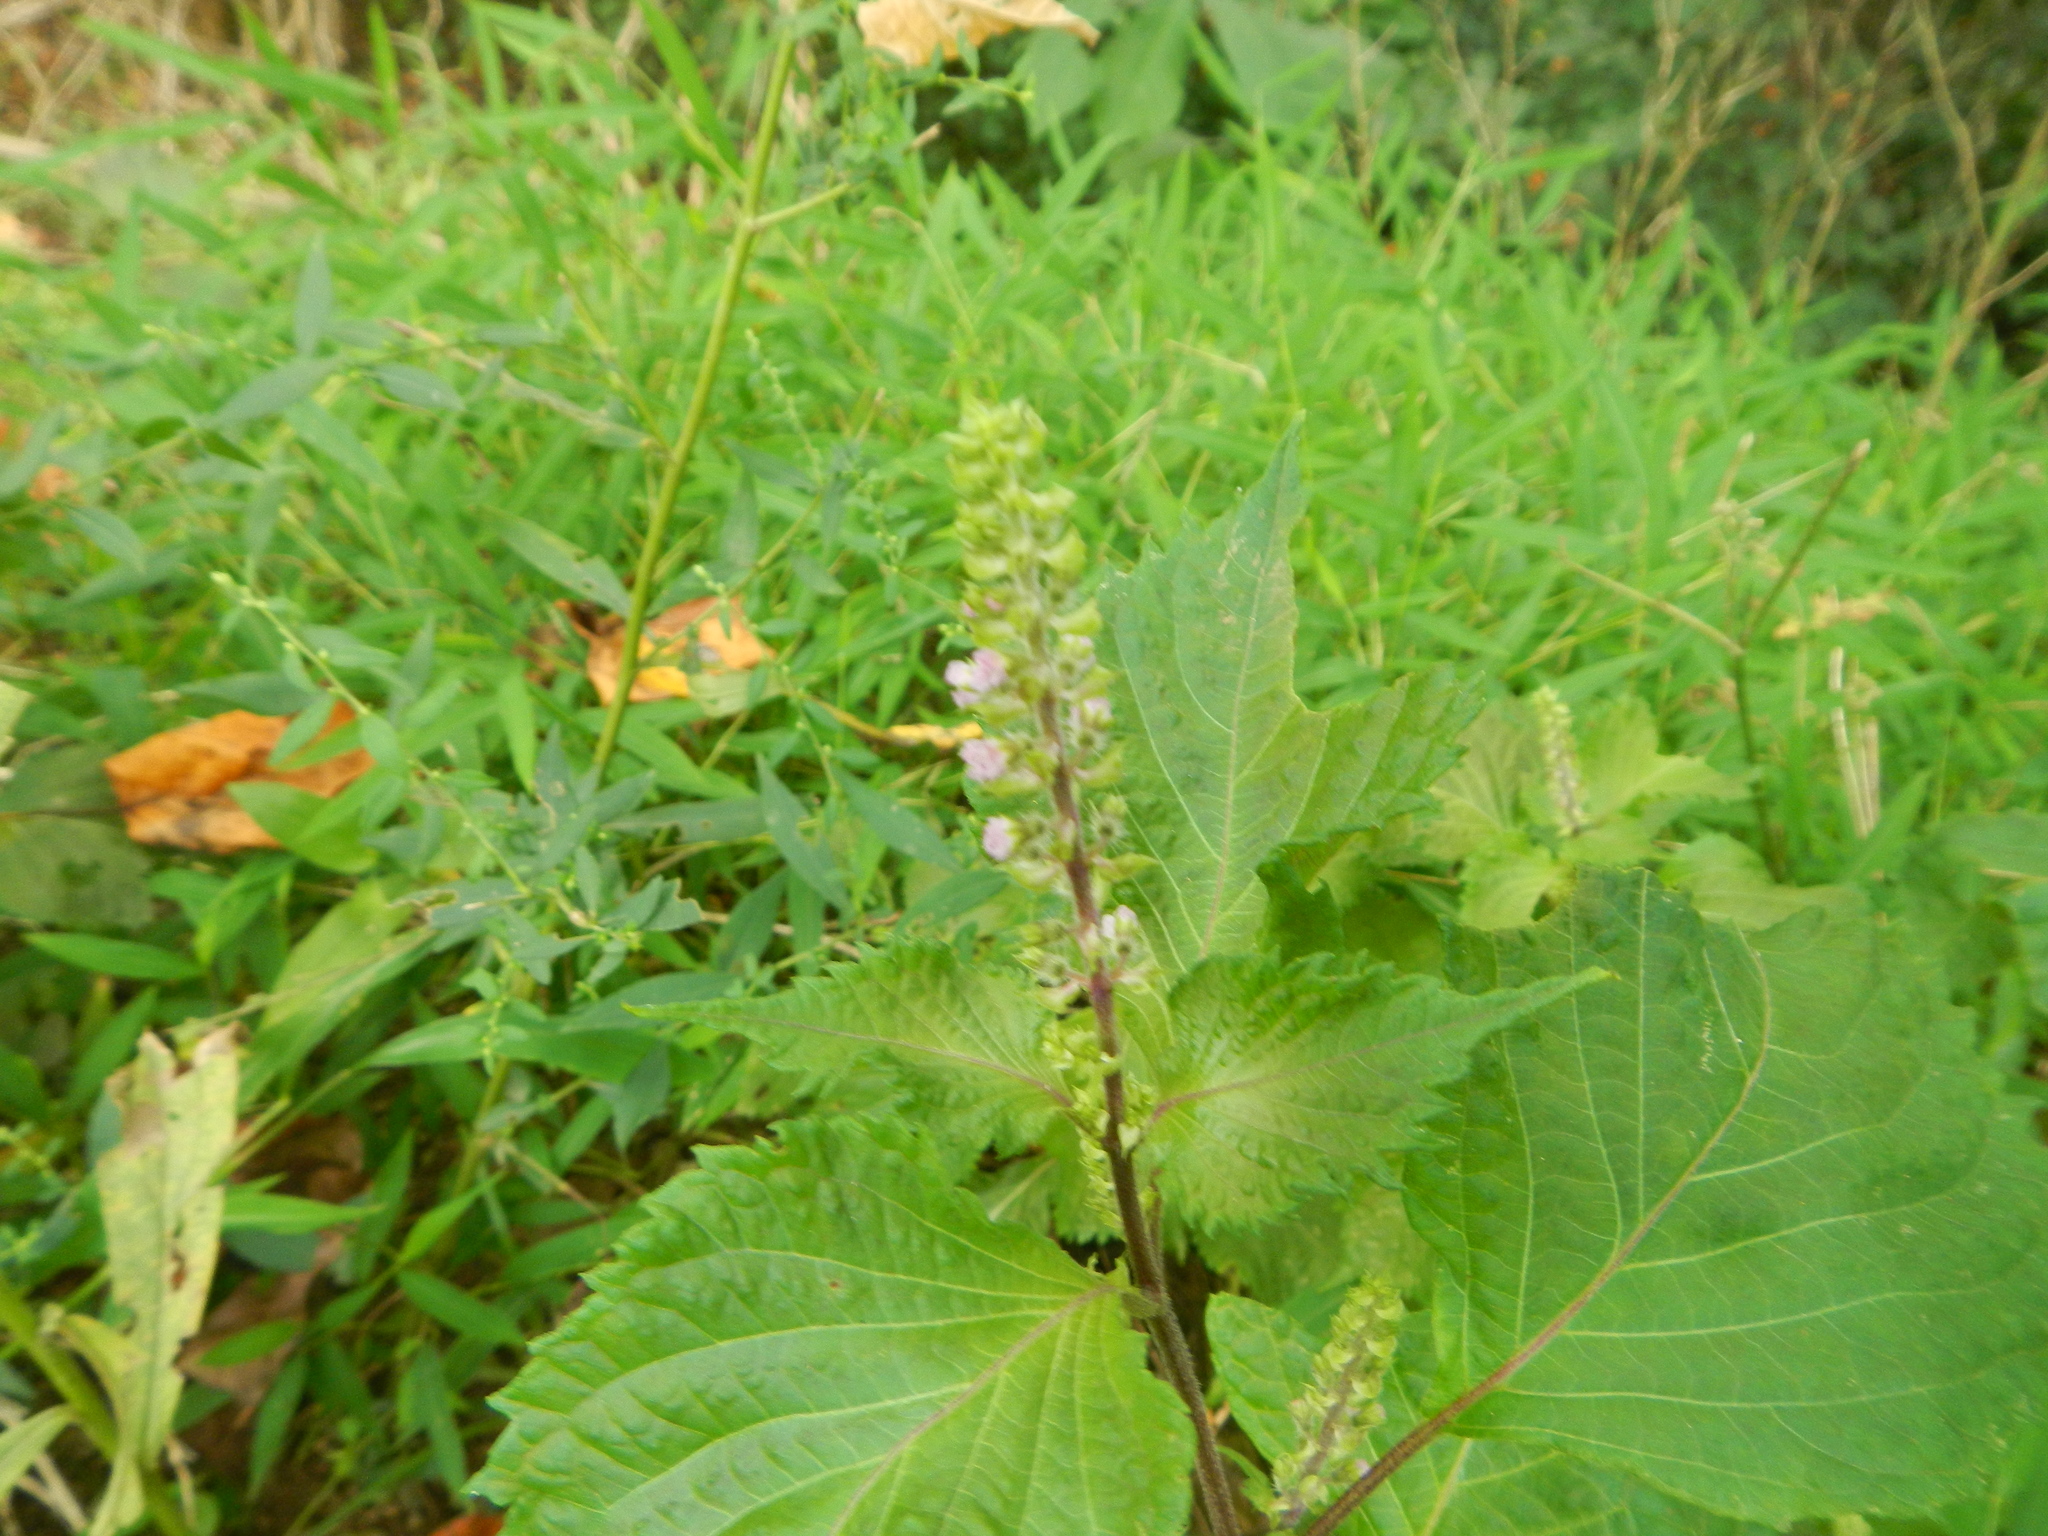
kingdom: Plantae
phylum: Tracheophyta
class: Magnoliopsida
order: Lamiales
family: Lamiaceae
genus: Perilla
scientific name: Perilla frutescens
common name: Perilla
